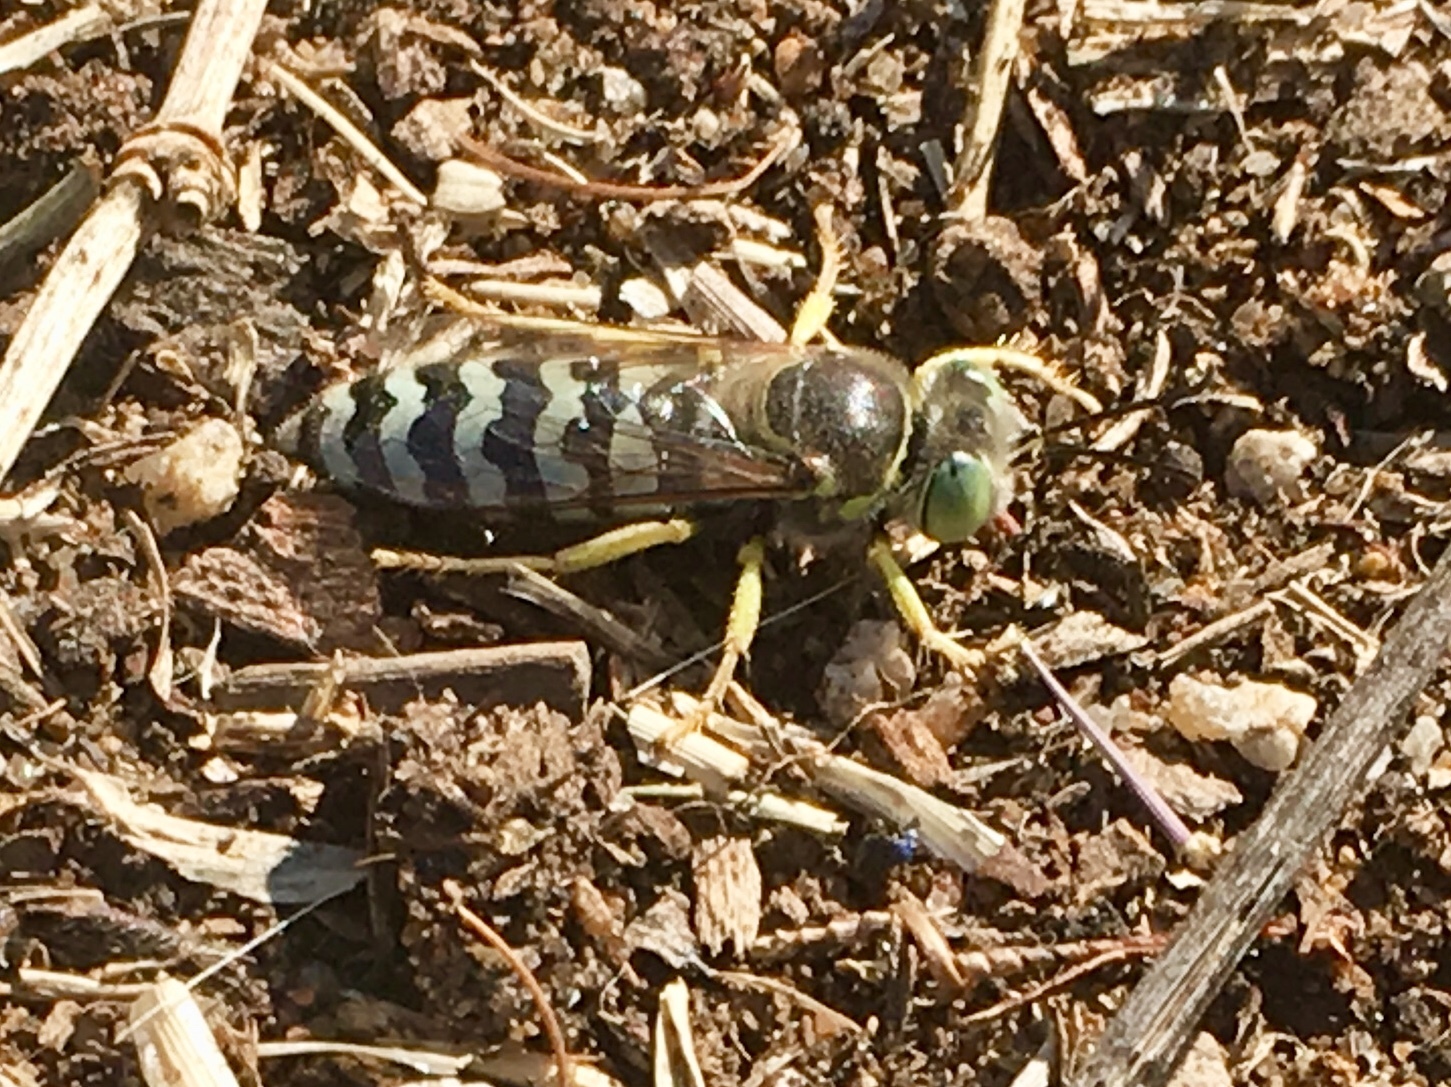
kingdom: Animalia
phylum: Arthropoda
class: Insecta
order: Hymenoptera
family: Crabronidae
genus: Bembix
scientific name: Bembix americana
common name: American sand wasp
